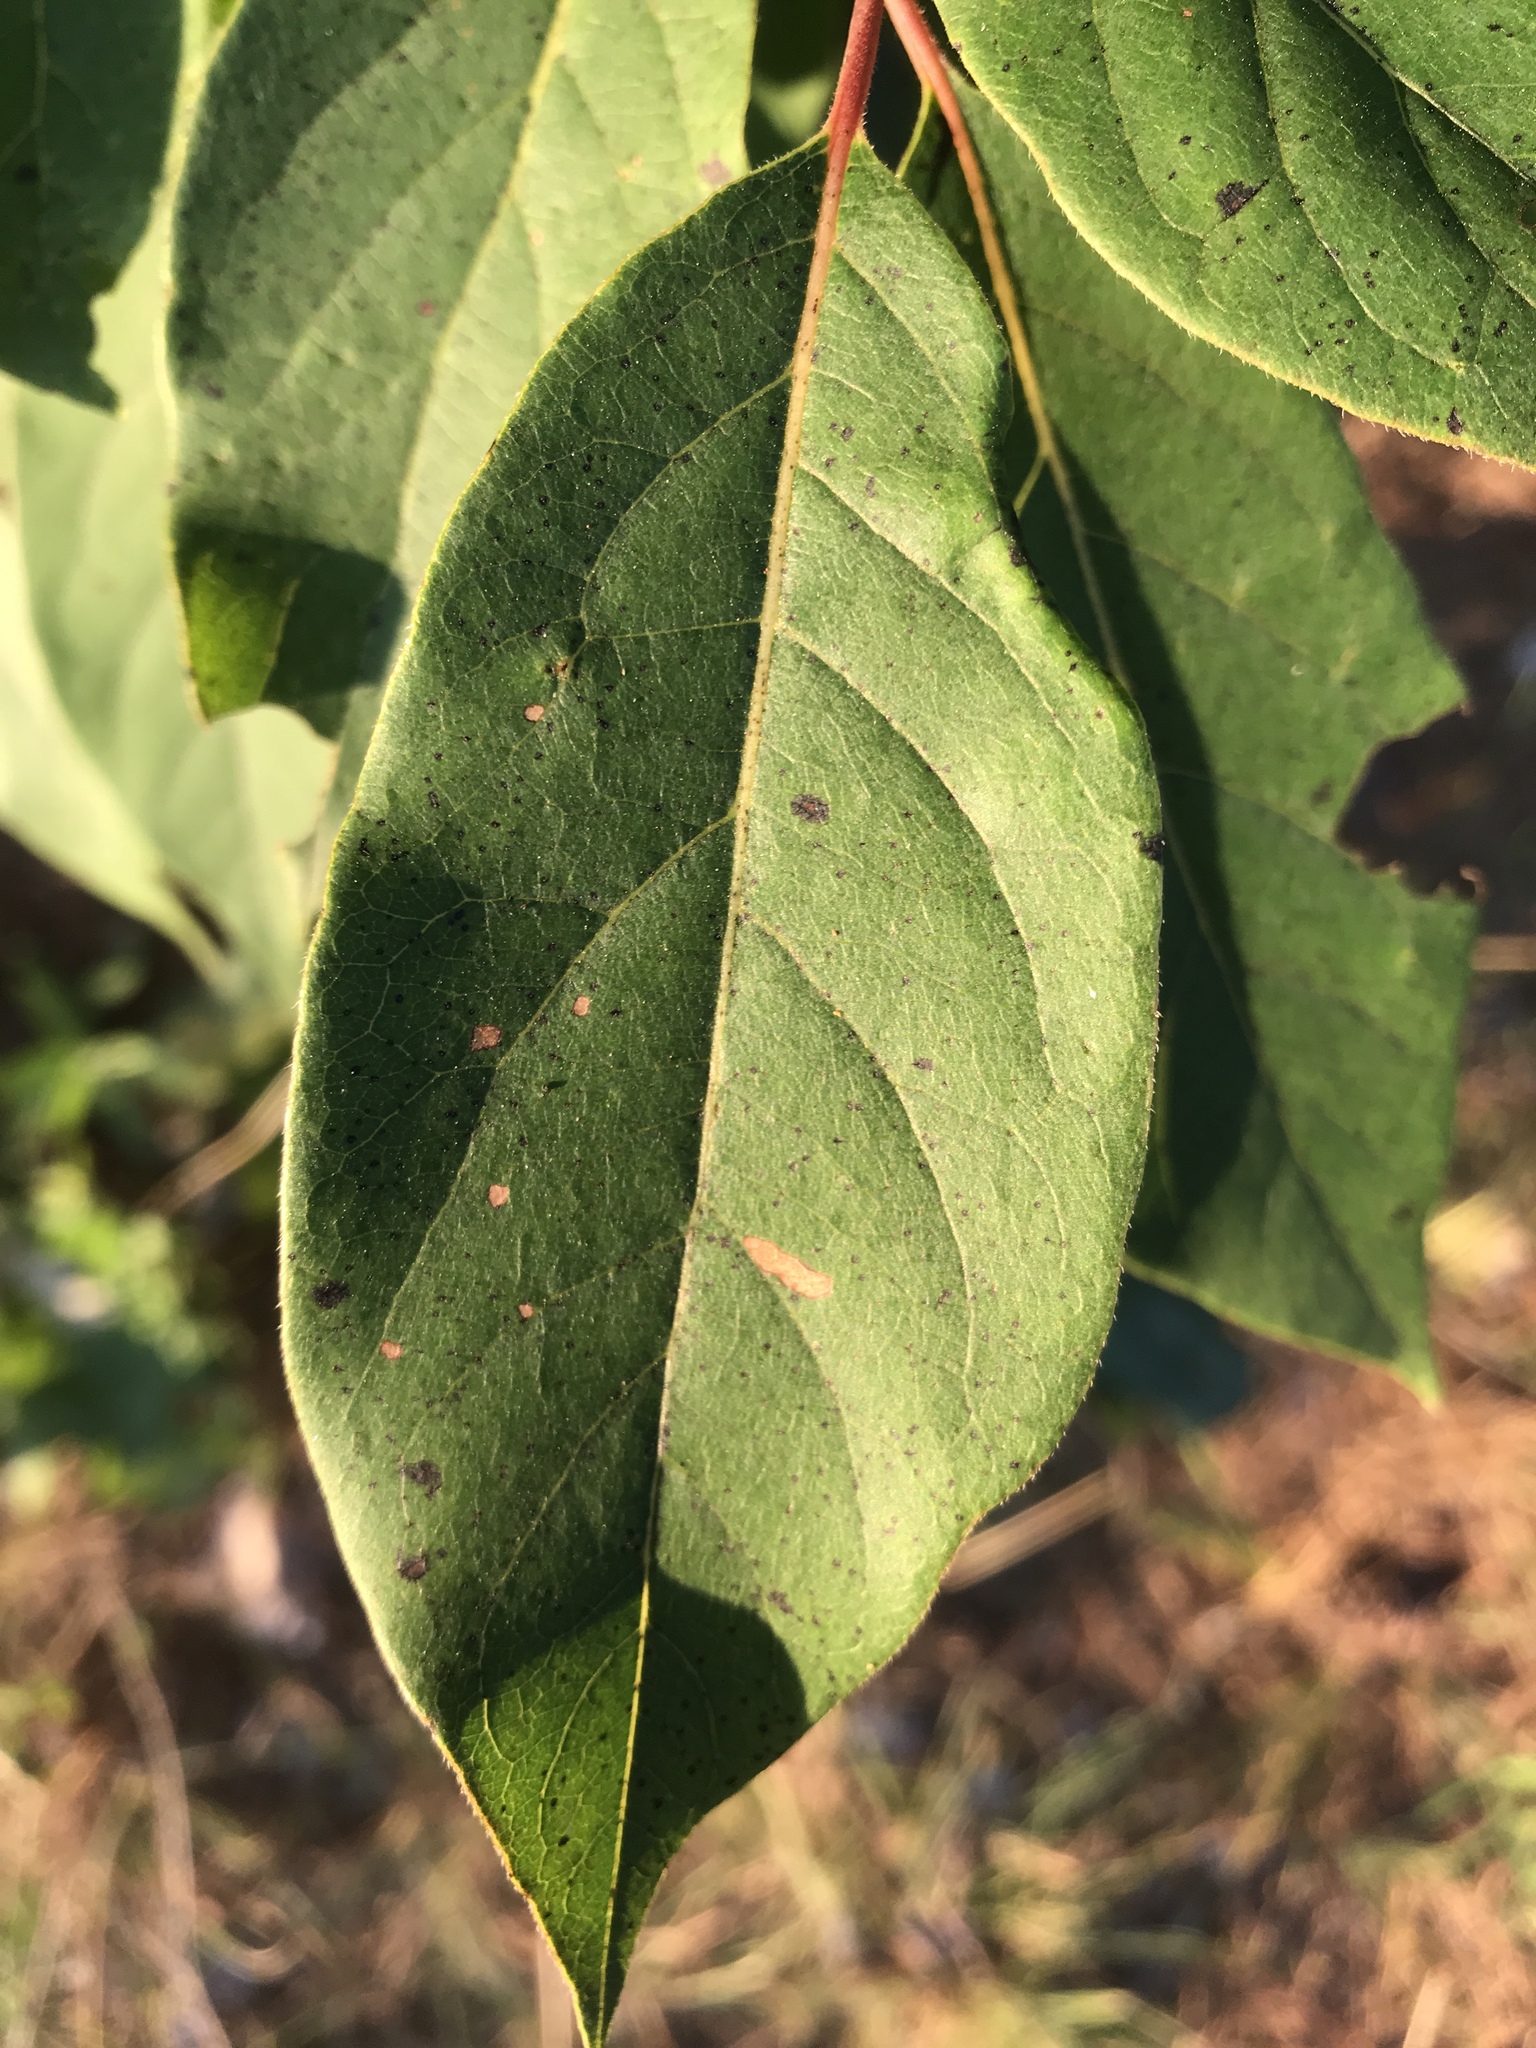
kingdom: Plantae
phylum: Tracheophyta
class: Magnoliopsida
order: Ericales
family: Ebenaceae
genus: Diospyros
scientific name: Diospyros virginiana
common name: Persimmon
